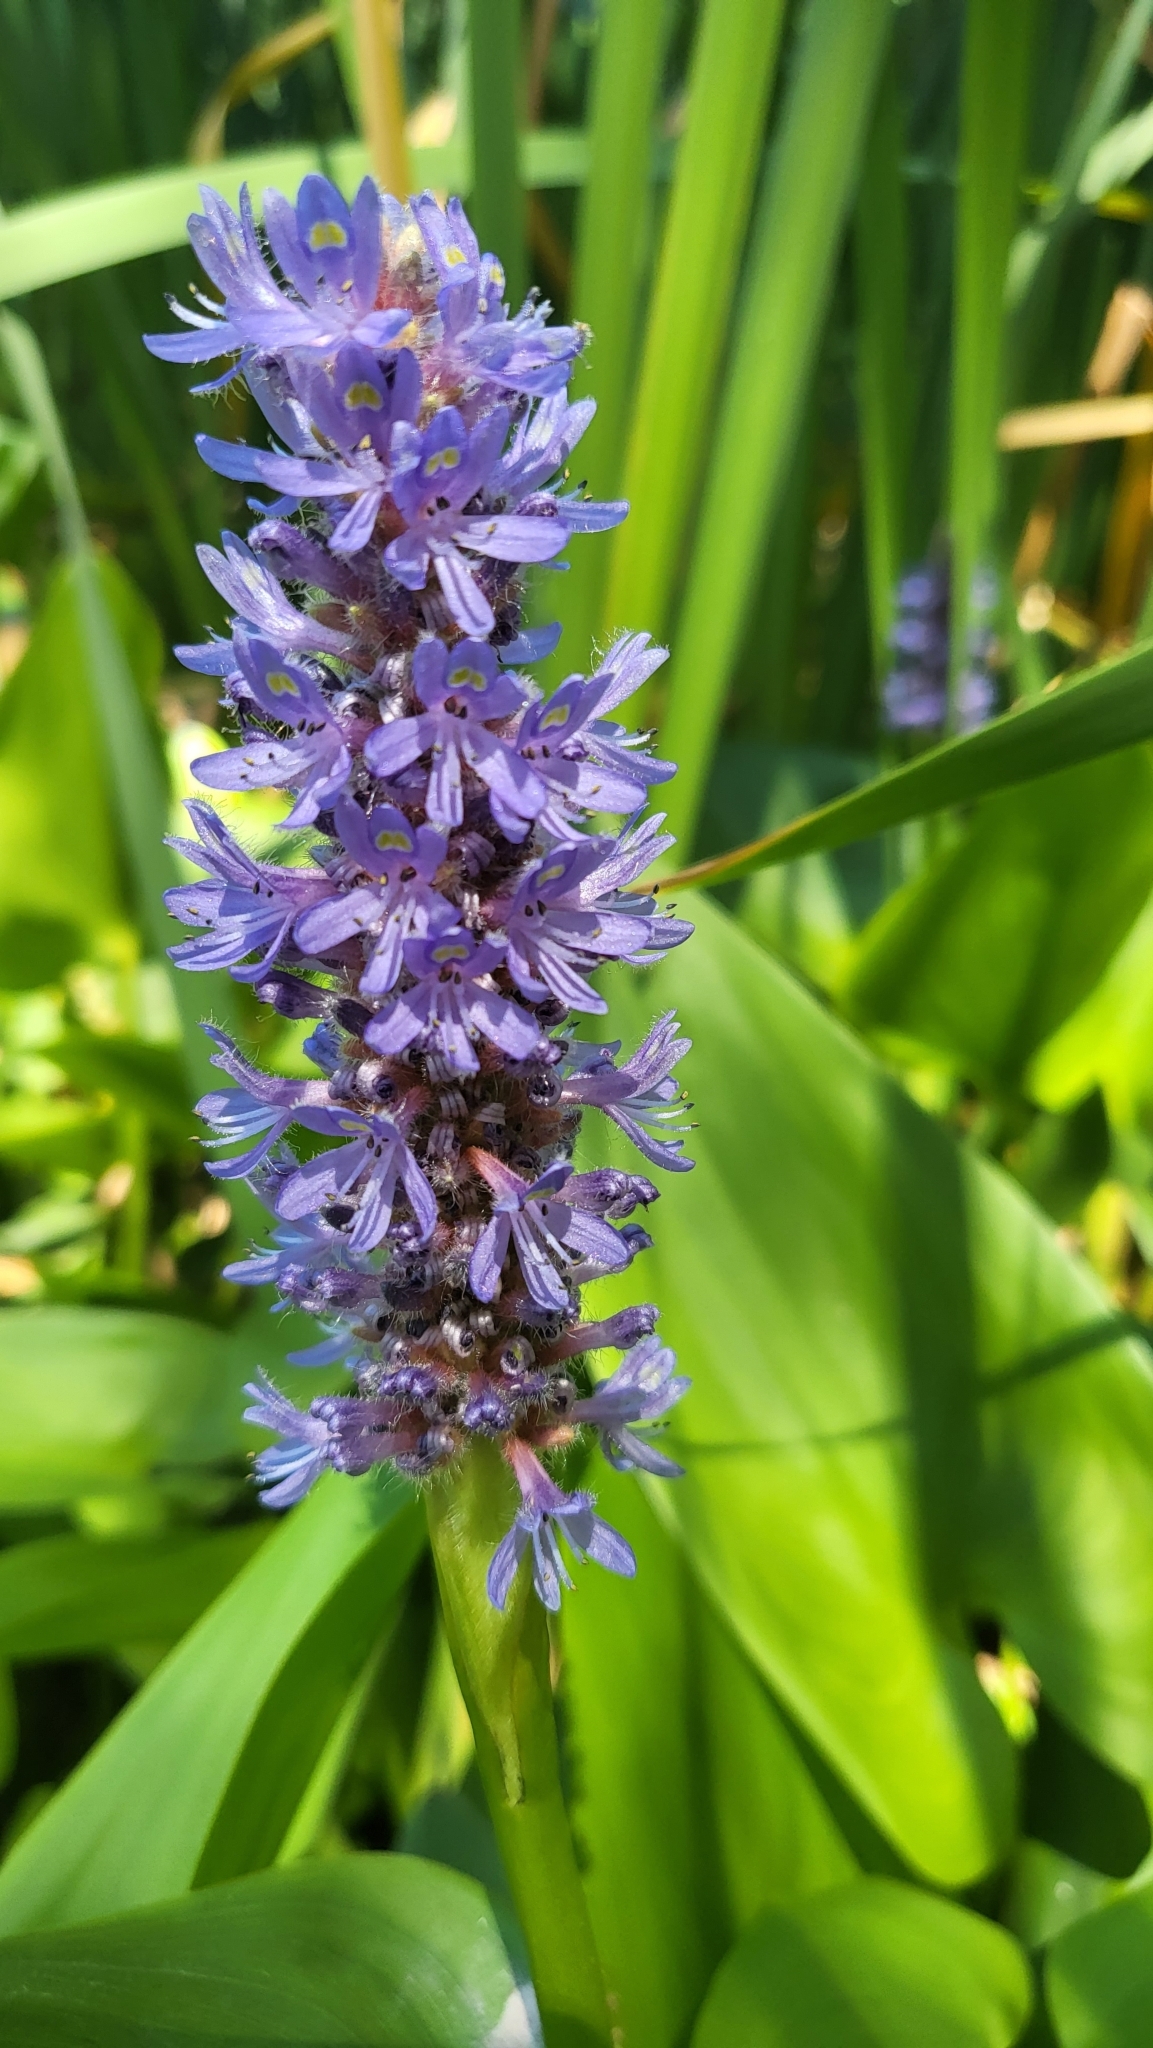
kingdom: Plantae
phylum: Tracheophyta
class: Liliopsida
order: Commelinales
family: Pontederiaceae
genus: Pontederia
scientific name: Pontederia cordata
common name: Pickerelweed
